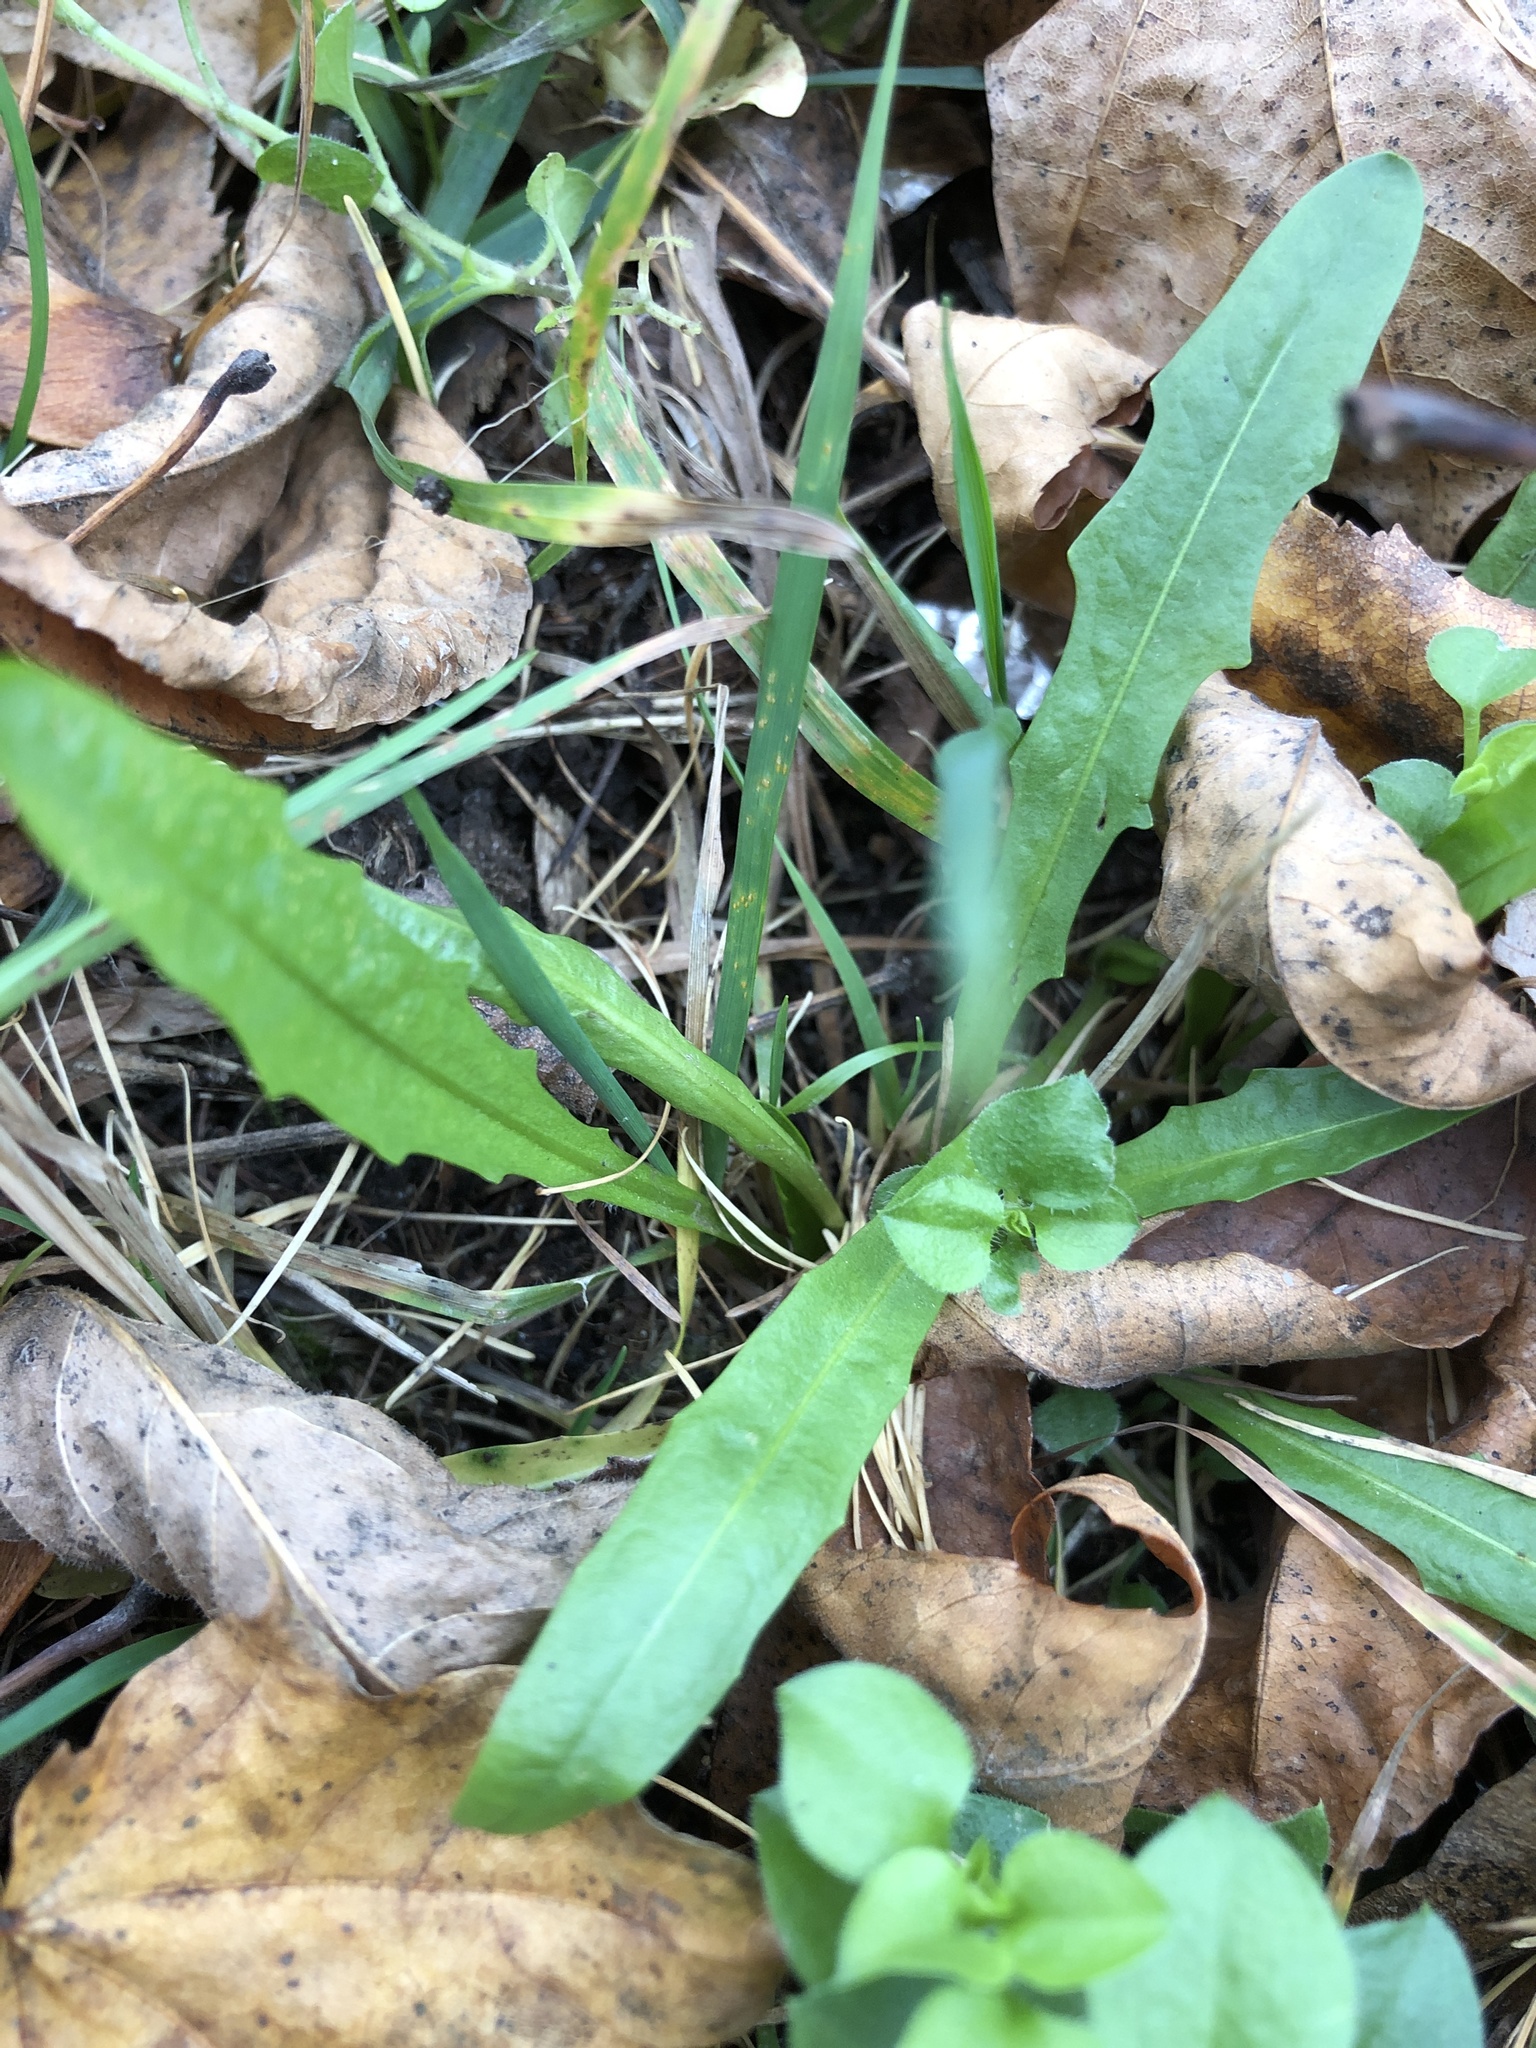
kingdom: Plantae
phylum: Tracheophyta
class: Magnoliopsida
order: Asterales
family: Asteraceae
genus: Scorzoneroides
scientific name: Scorzoneroides autumnalis
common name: Autumn hawkbit
